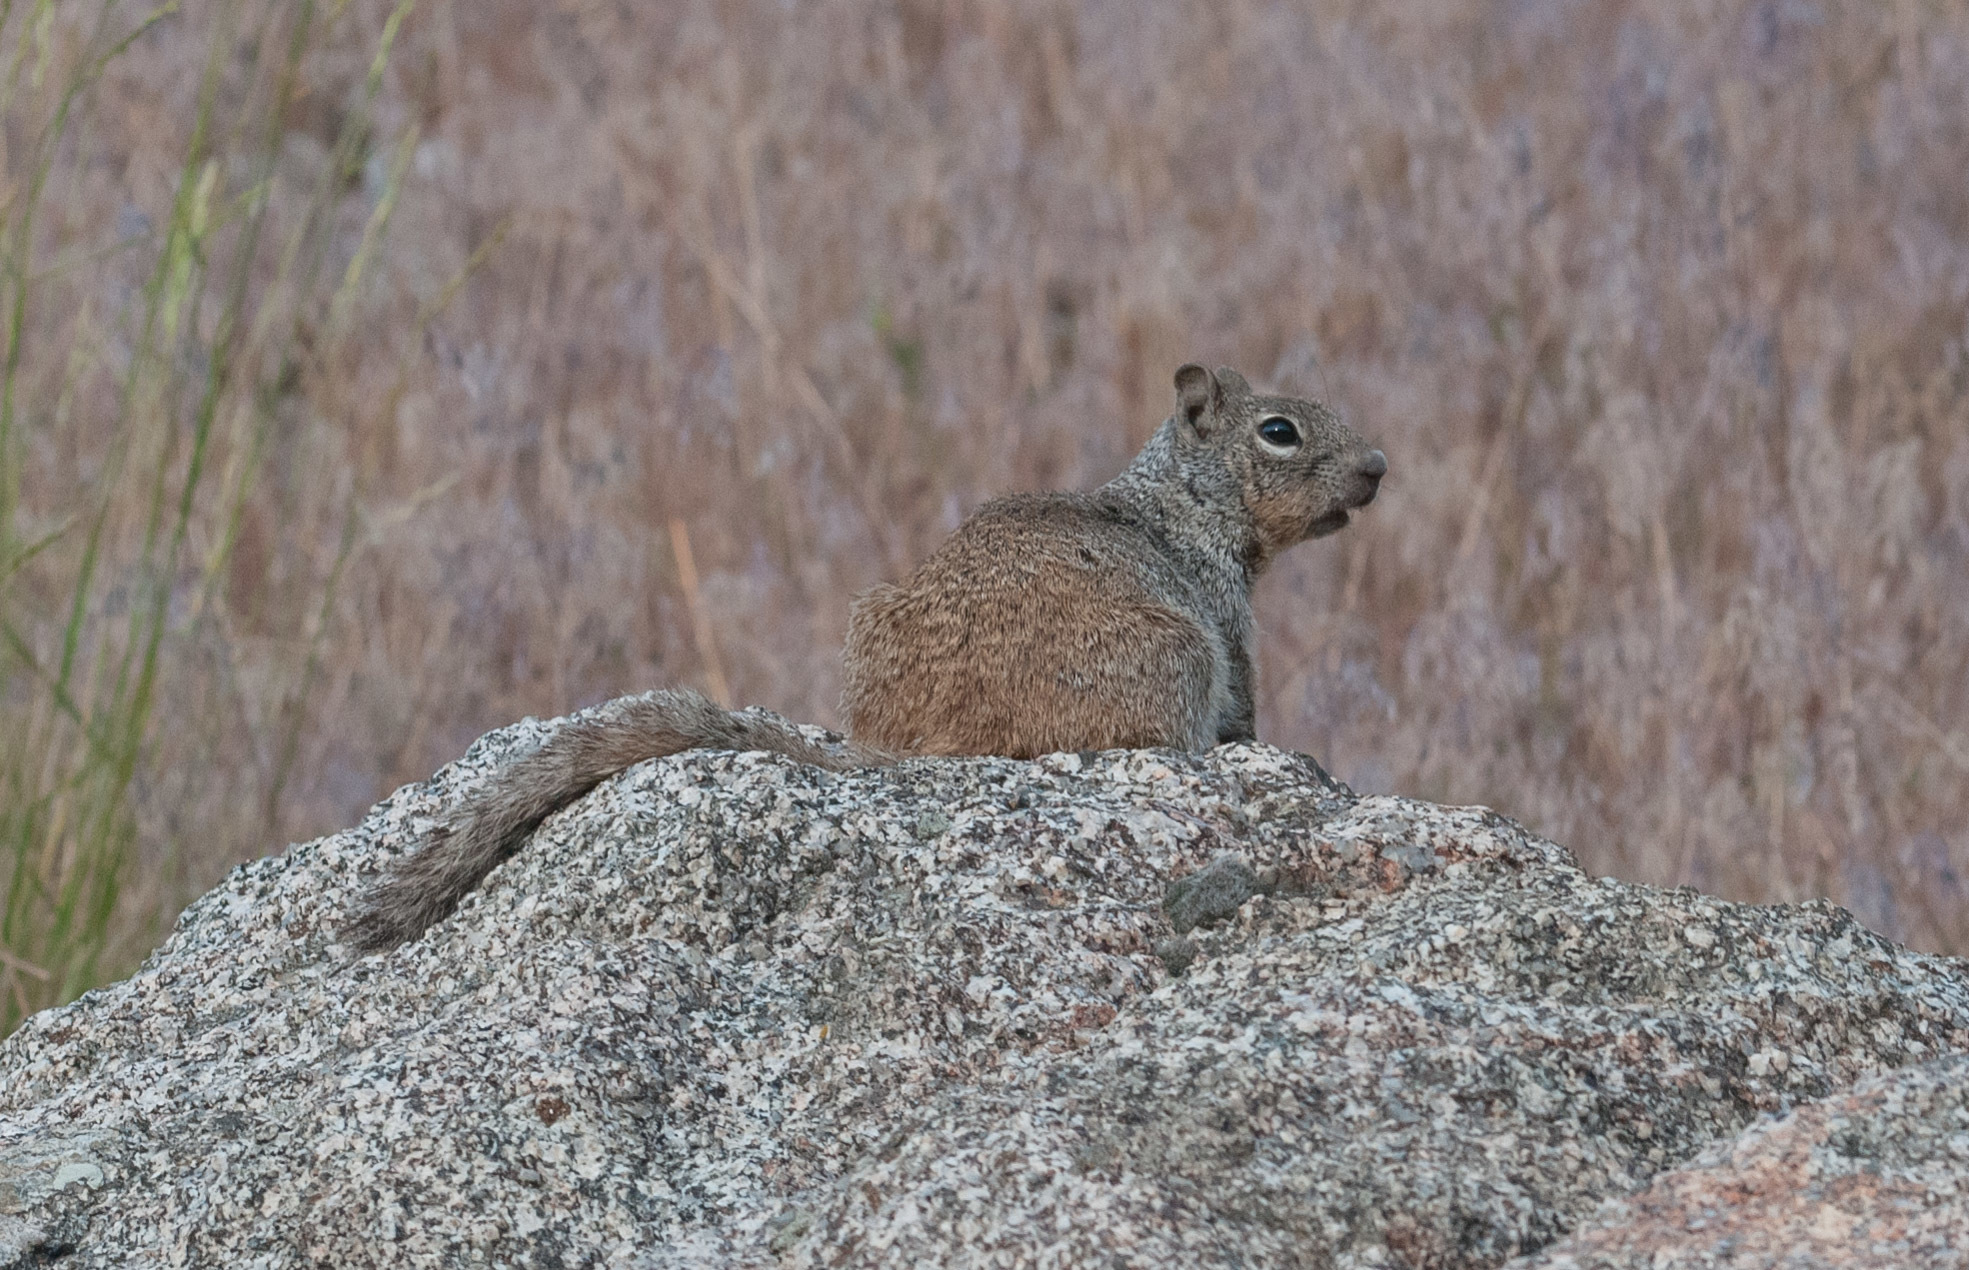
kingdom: Animalia
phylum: Chordata
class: Mammalia
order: Rodentia
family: Sciuridae
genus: Otospermophilus
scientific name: Otospermophilus variegatus
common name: Rock squirrel
